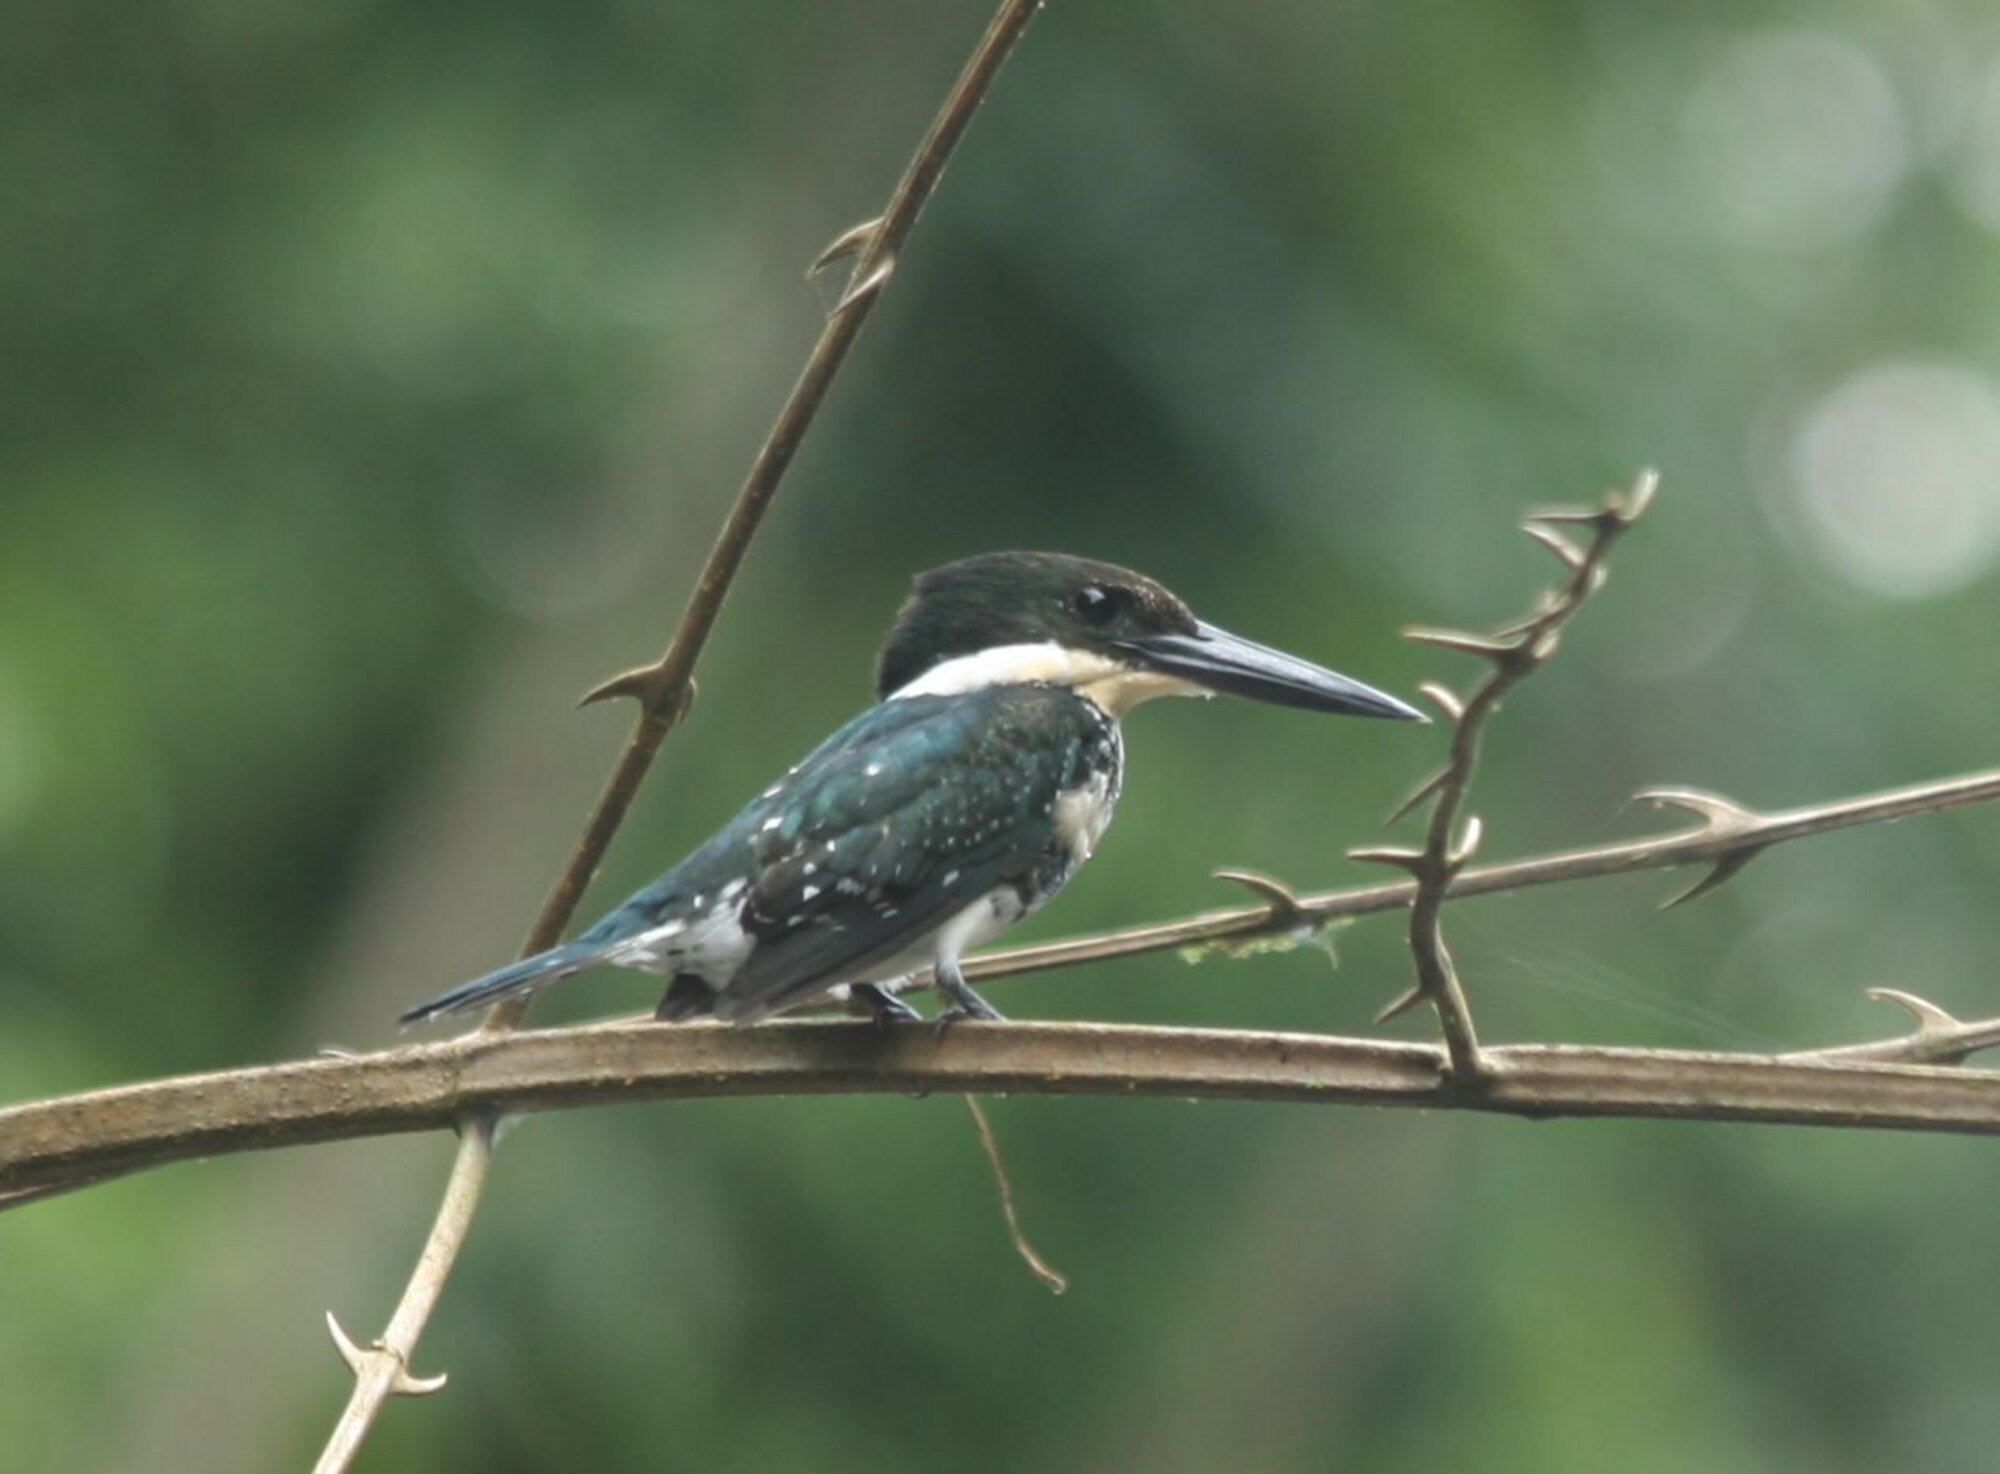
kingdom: Animalia
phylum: Chordata
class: Aves
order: Coraciiformes
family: Alcedinidae
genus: Chloroceryle
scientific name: Chloroceryle americana
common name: Green kingfisher
